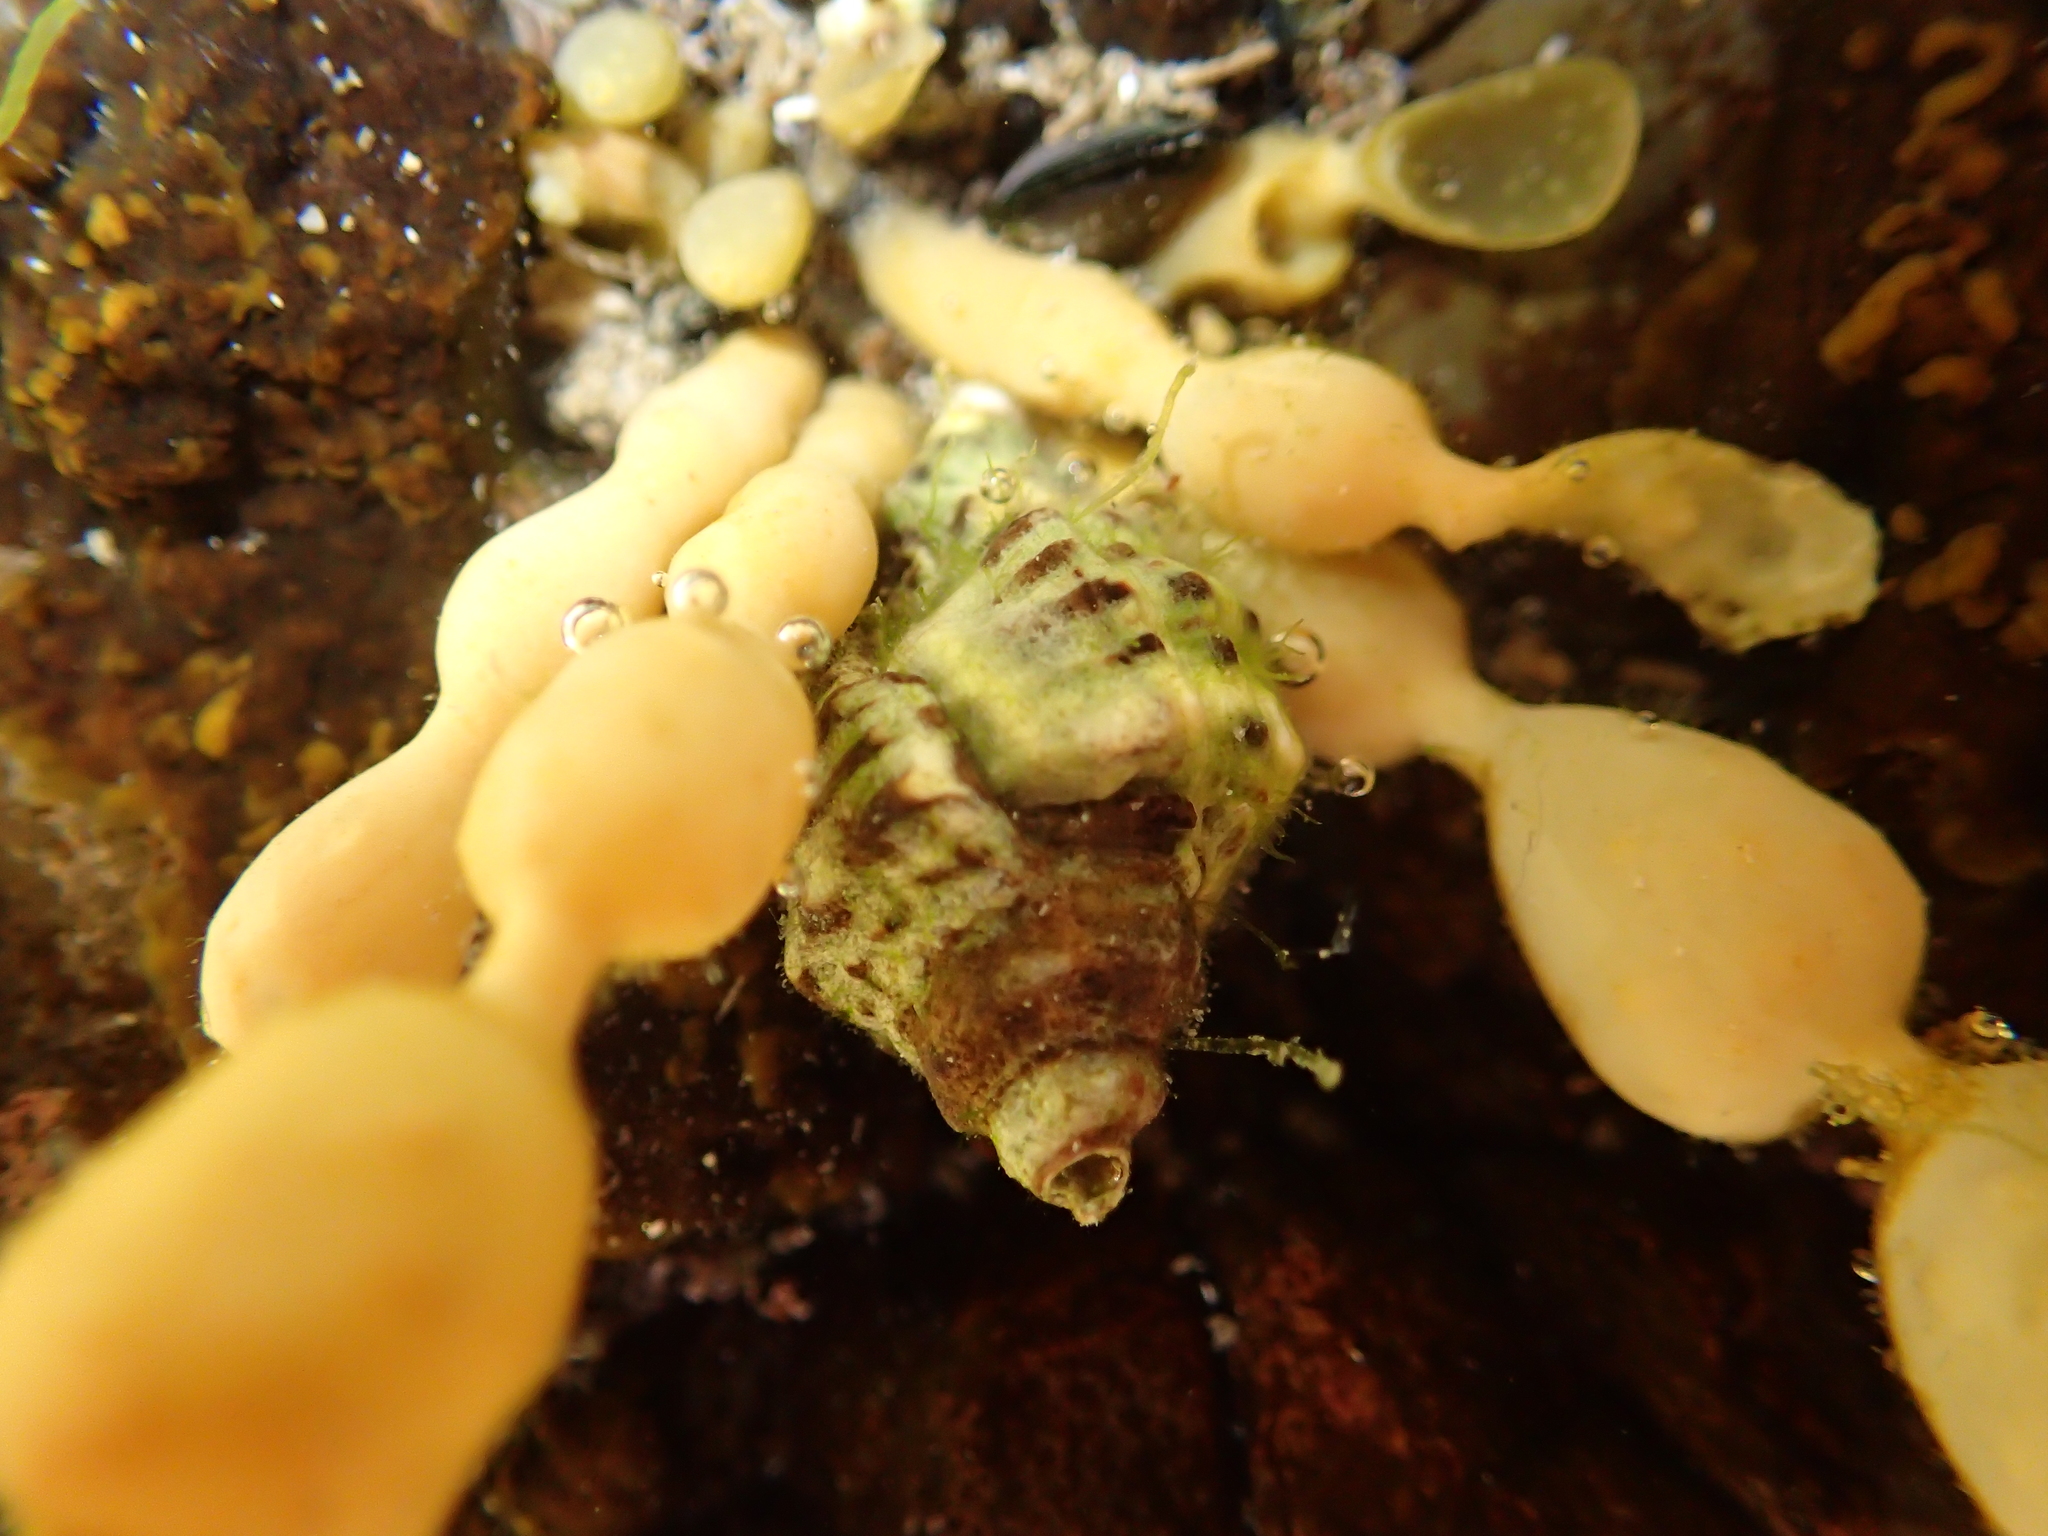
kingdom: Animalia
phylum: Mollusca
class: Gastropoda
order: Neogastropoda
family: Muricidae
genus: Haustrum
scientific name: Haustrum scobina
